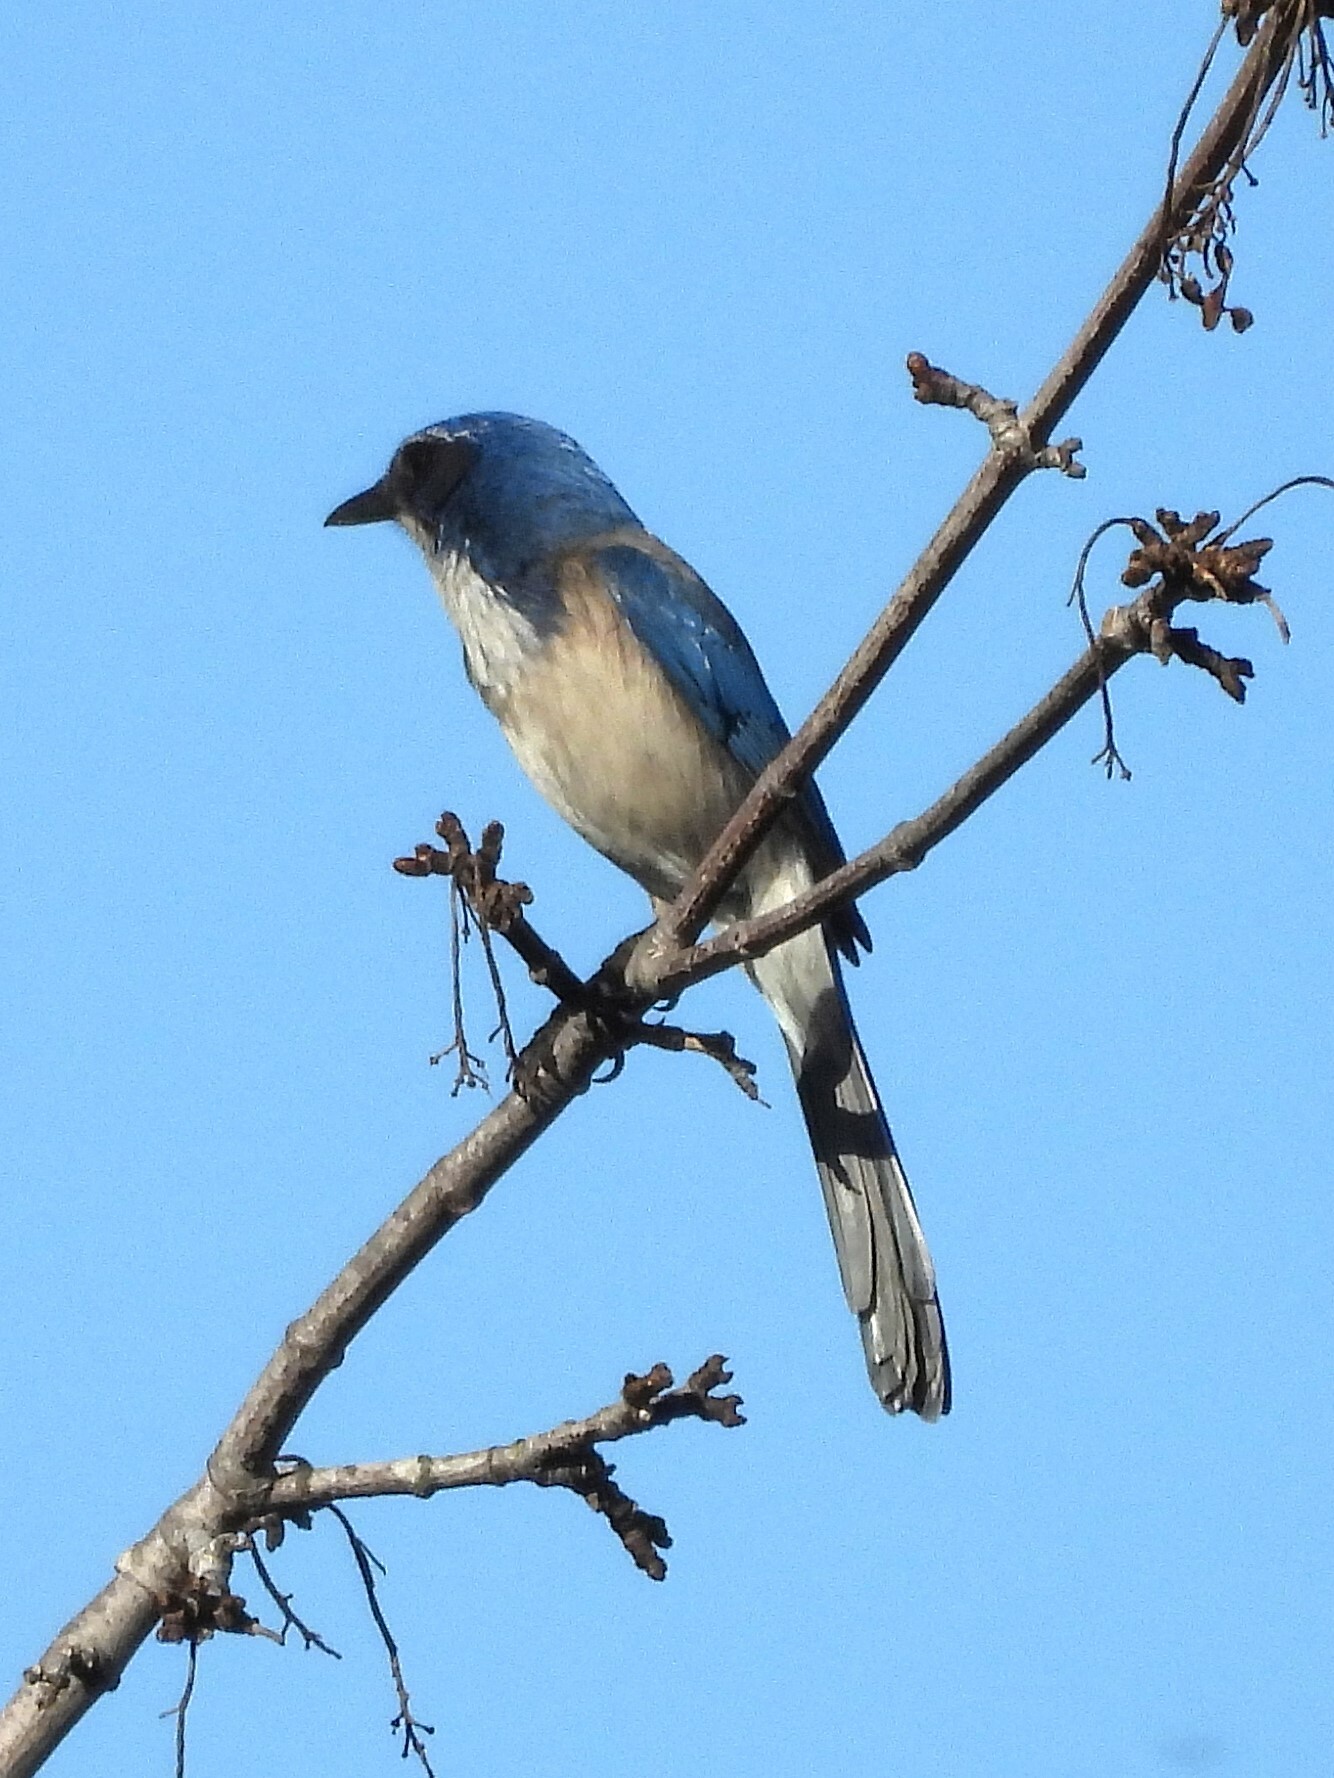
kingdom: Animalia
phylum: Chordata
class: Aves
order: Passeriformes
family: Corvidae
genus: Aphelocoma
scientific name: Aphelocoma californica
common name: California scrub-jay
